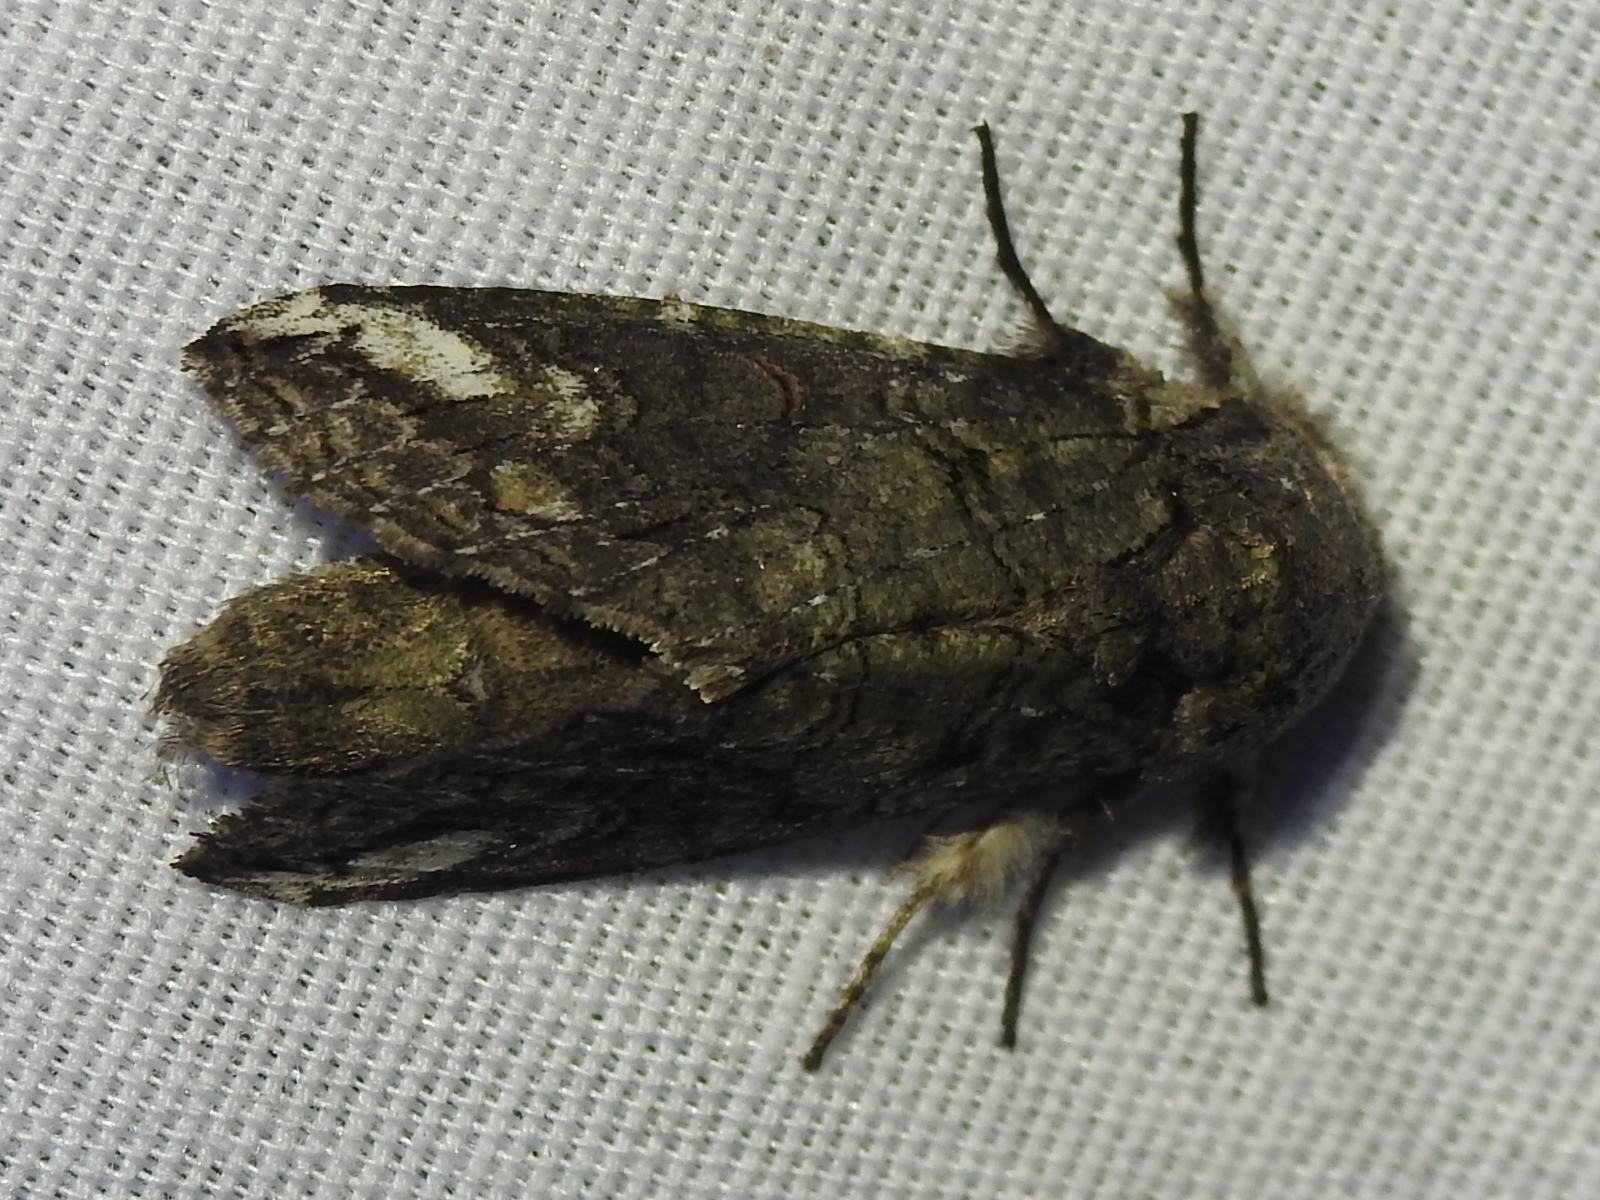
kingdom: Animalia
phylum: Arthropoda
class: Insecta
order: Lepidoptera
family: Notodontidae
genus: Heterocampa
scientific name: Heterocampa obliqua
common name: Oblique heterocampa
